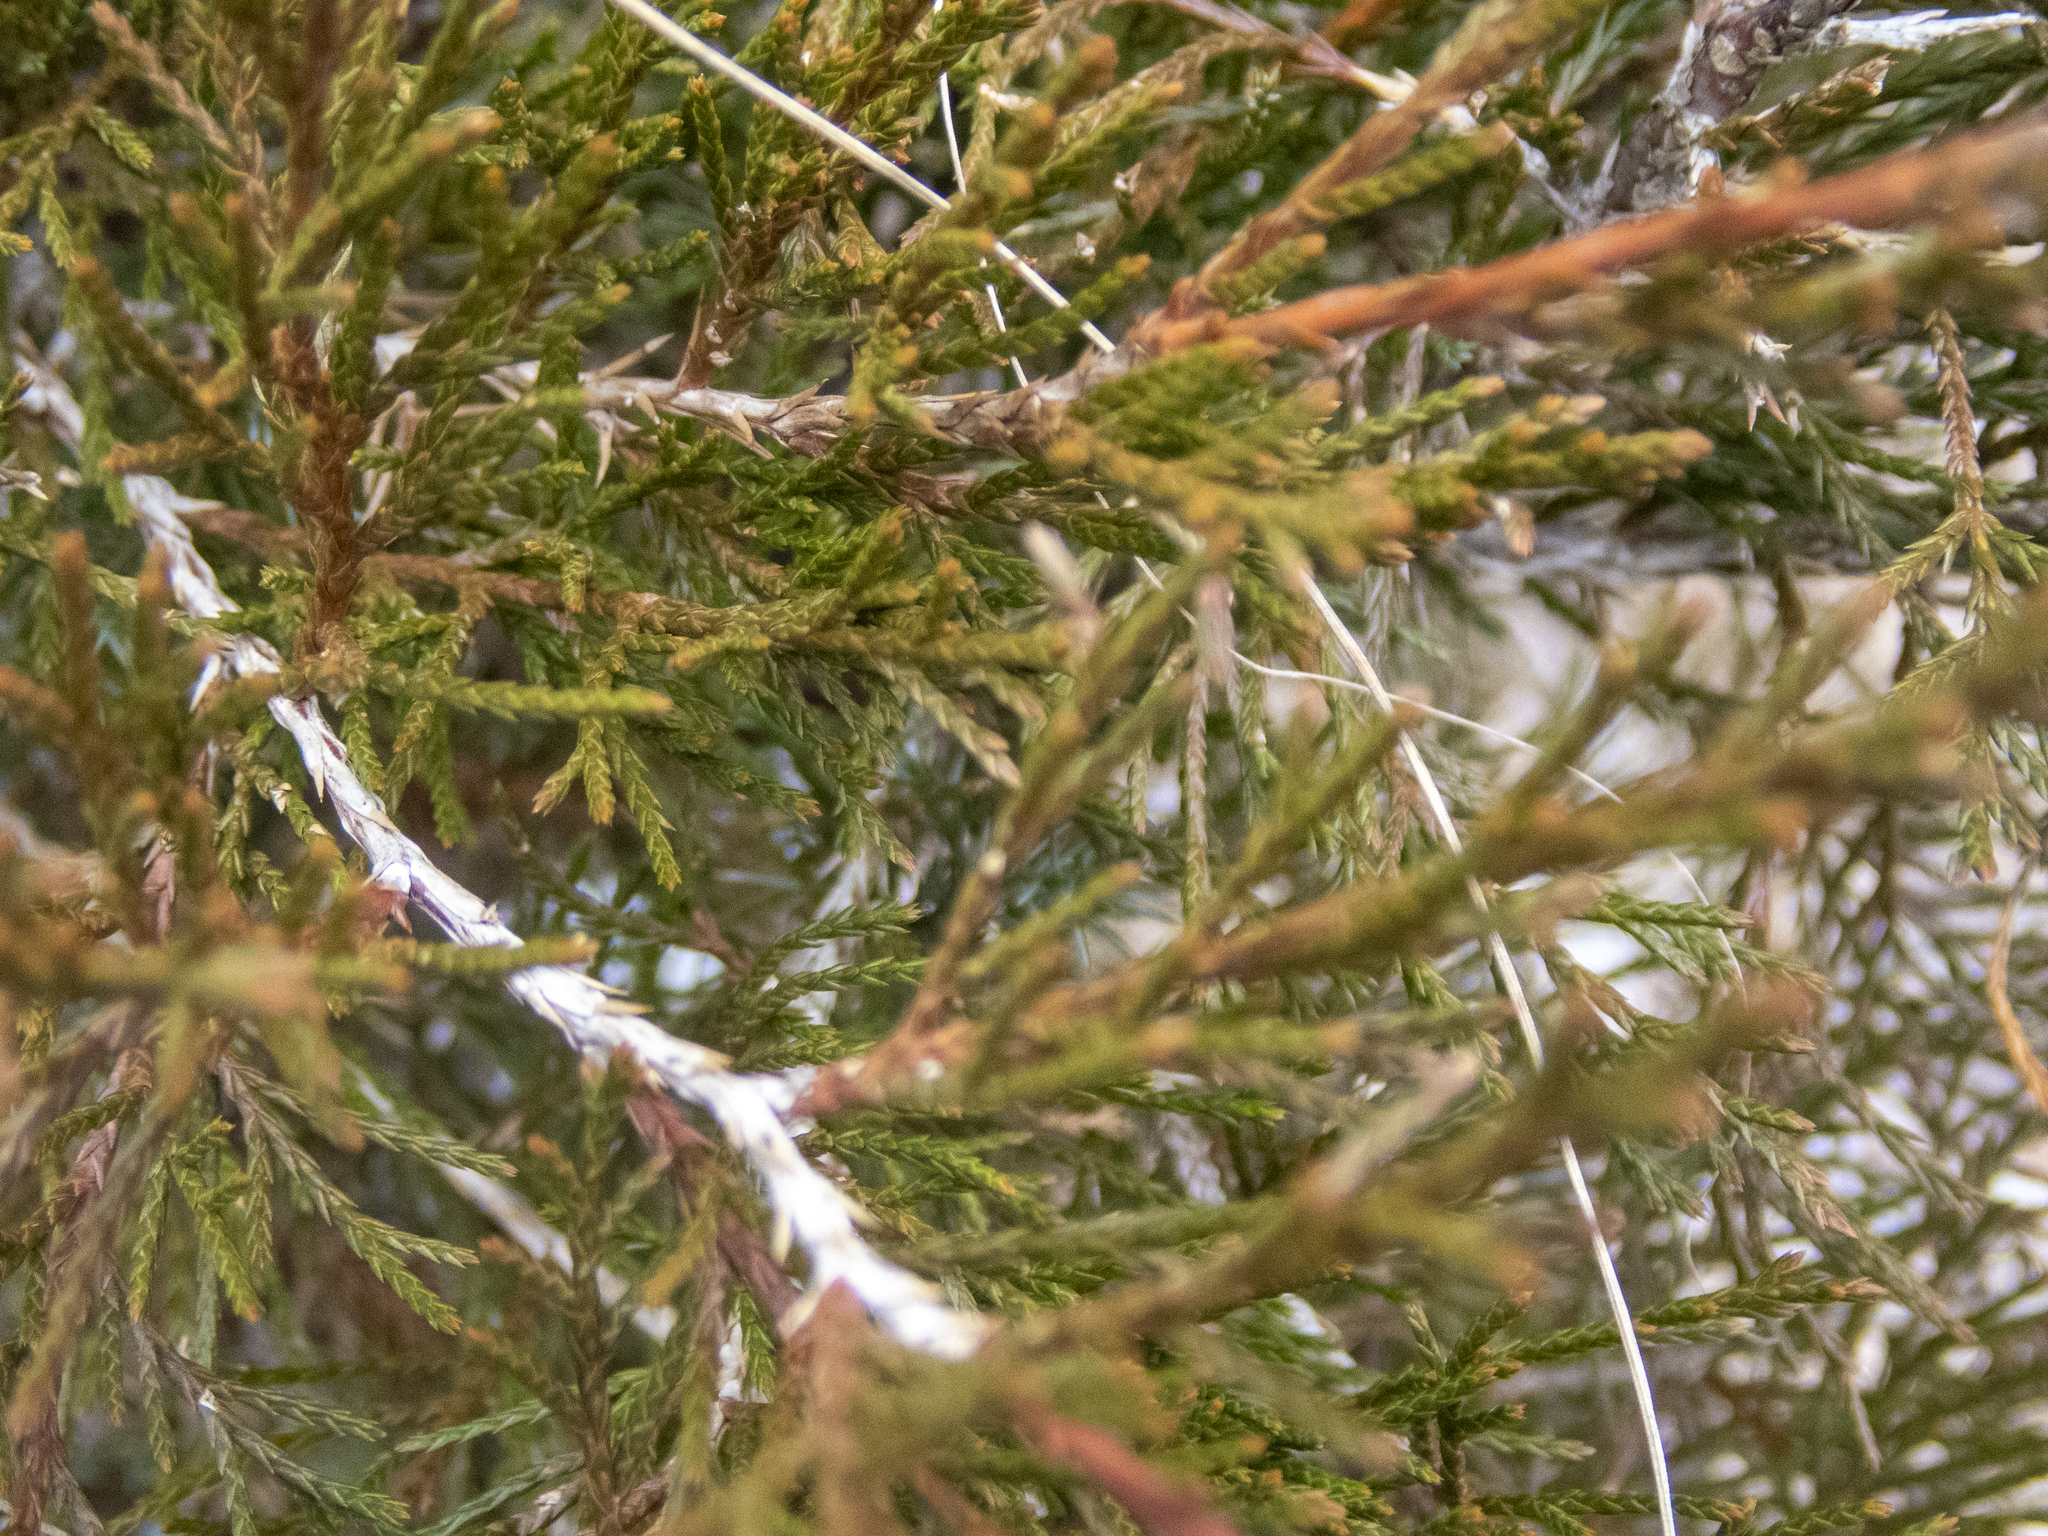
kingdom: Plantae
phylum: Tracheophyta
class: Pinopsida
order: Pinales
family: Cupressaceae
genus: Juniperus
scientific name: Juniperus virginiana
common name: Red juniper
